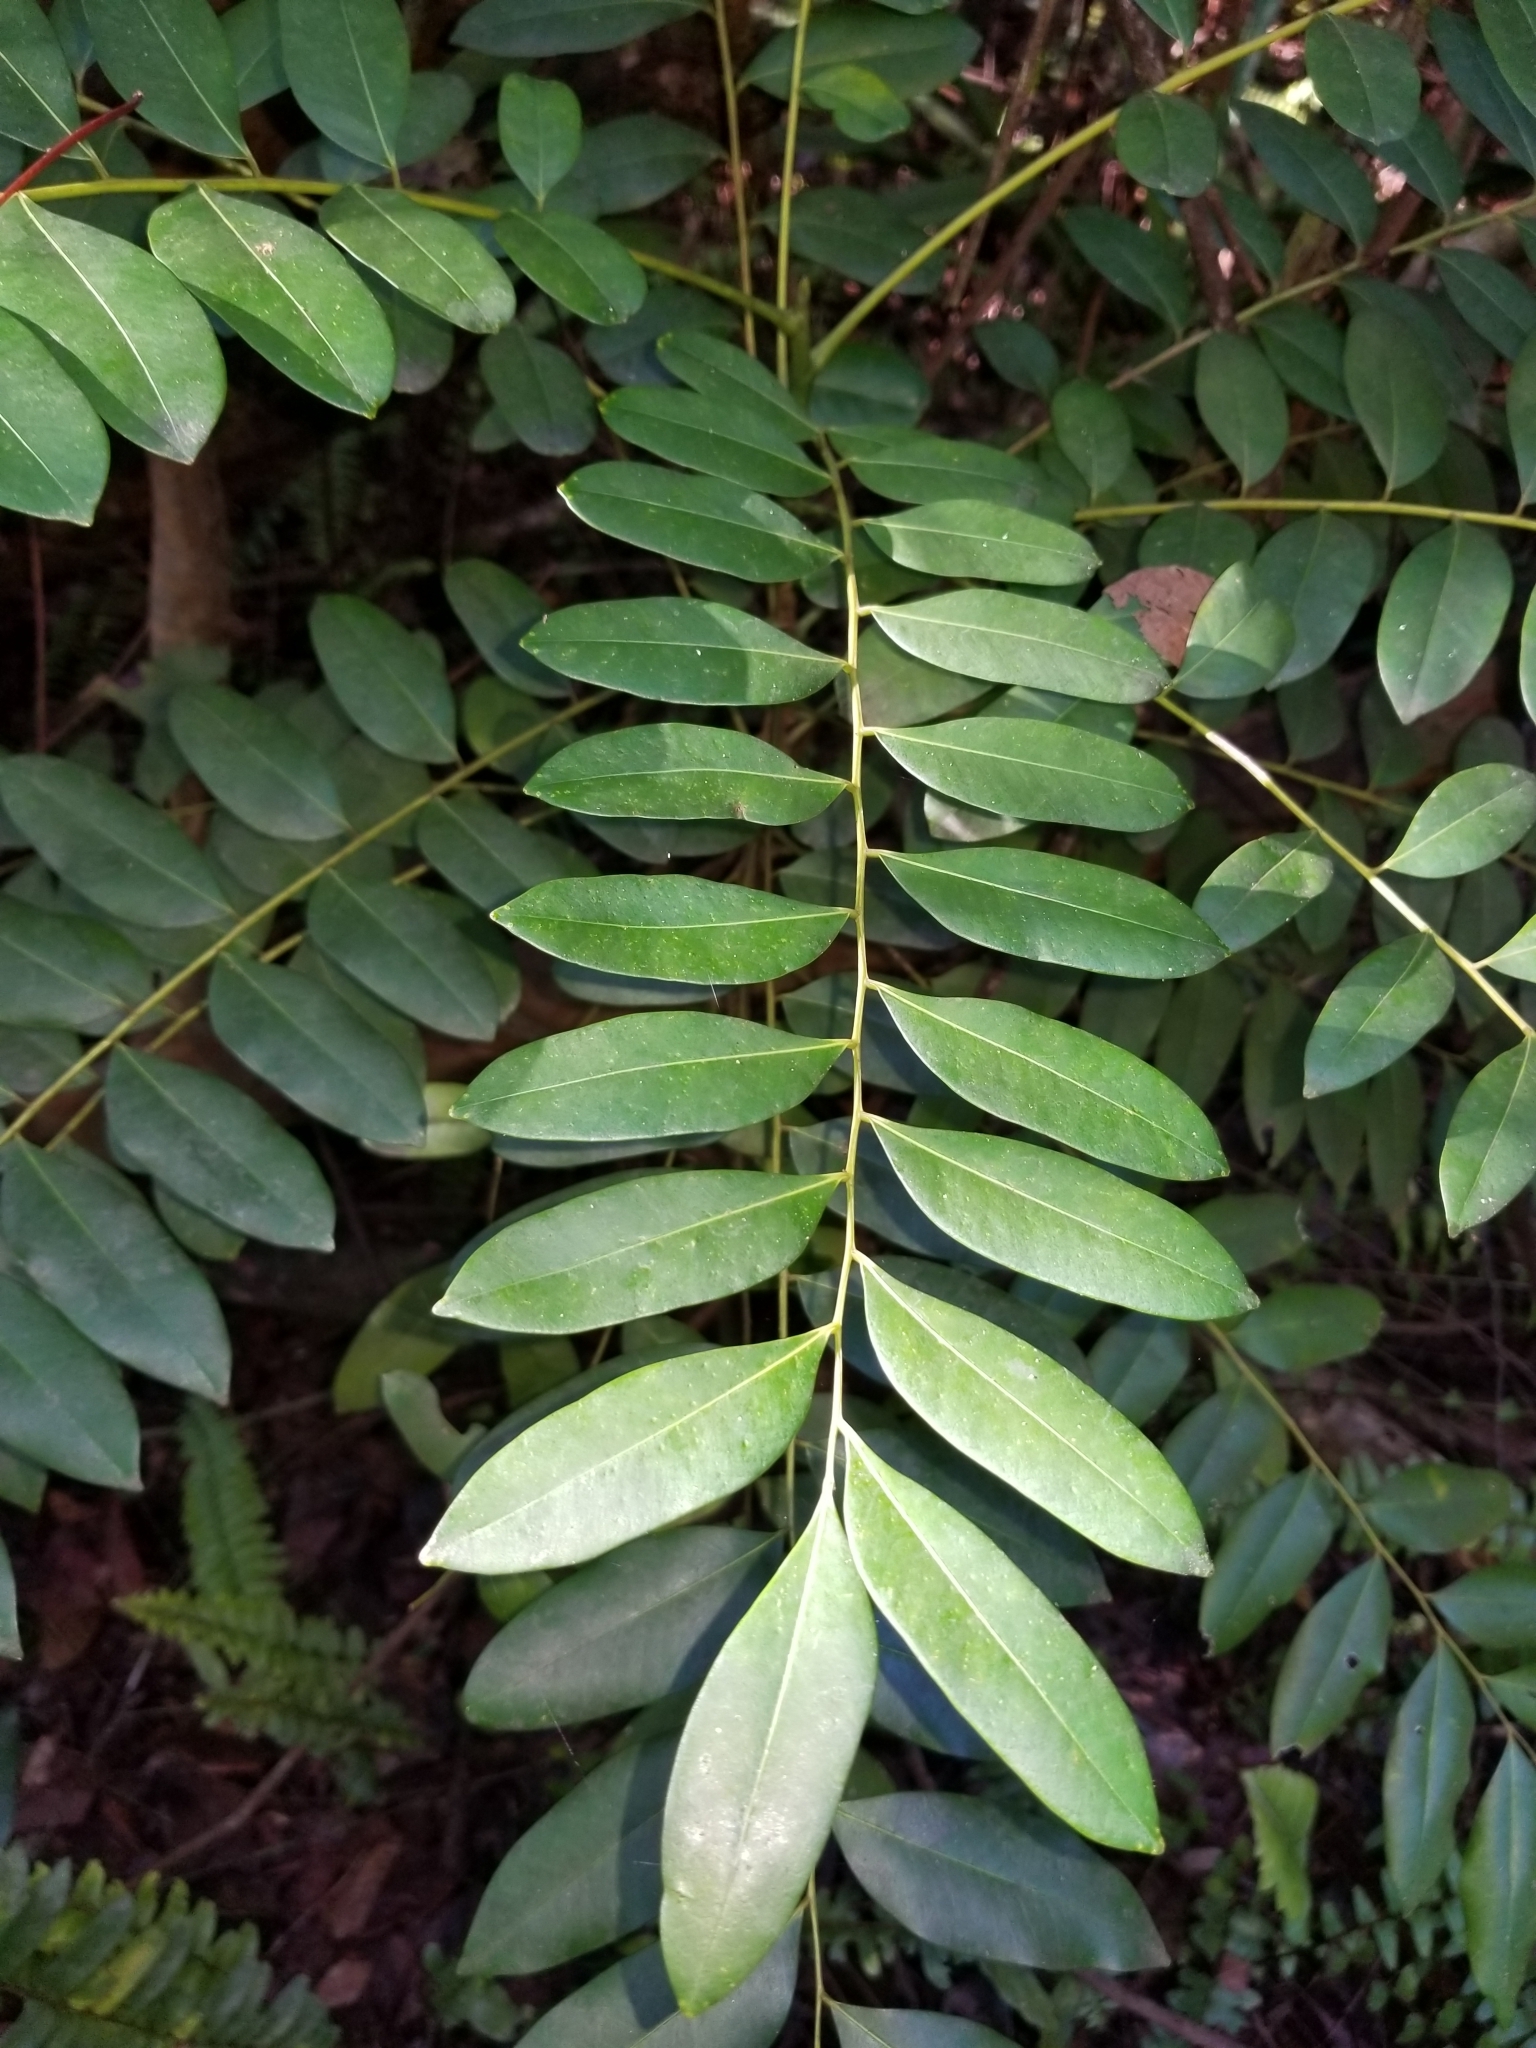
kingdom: Plantae
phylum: Tracheophyta
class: Magnoliopsida
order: Sapindales
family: Simaroubaceae
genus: Simarouba
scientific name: Simarouba glauca
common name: Dysentery-bark
